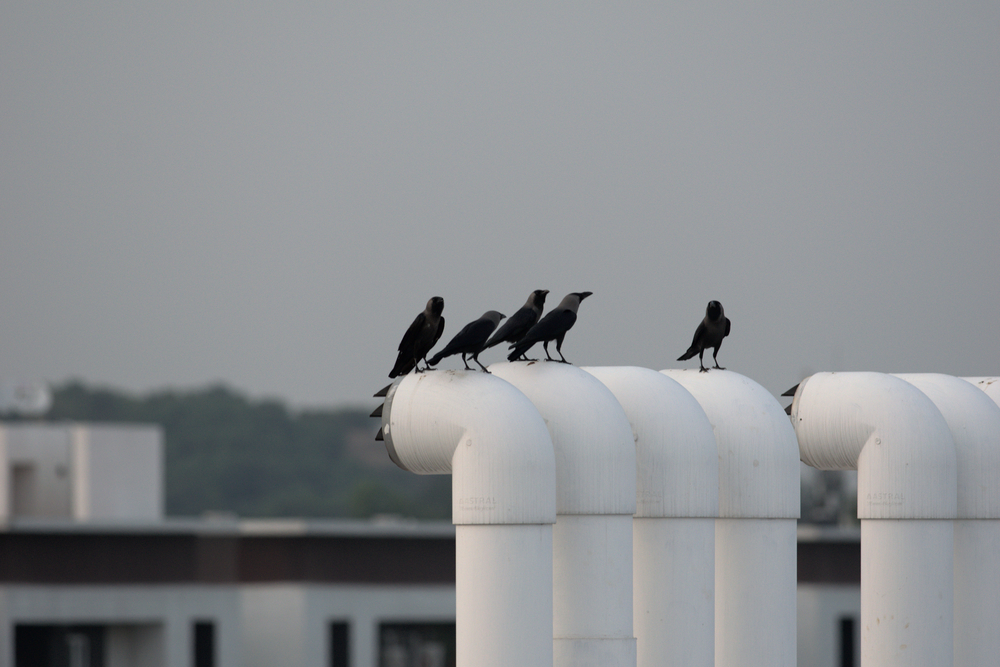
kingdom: Animalia
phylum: Chordata
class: Aves
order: Passeriformes
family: Corvidae
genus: Corvus
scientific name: Corvus splendens
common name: House crow
